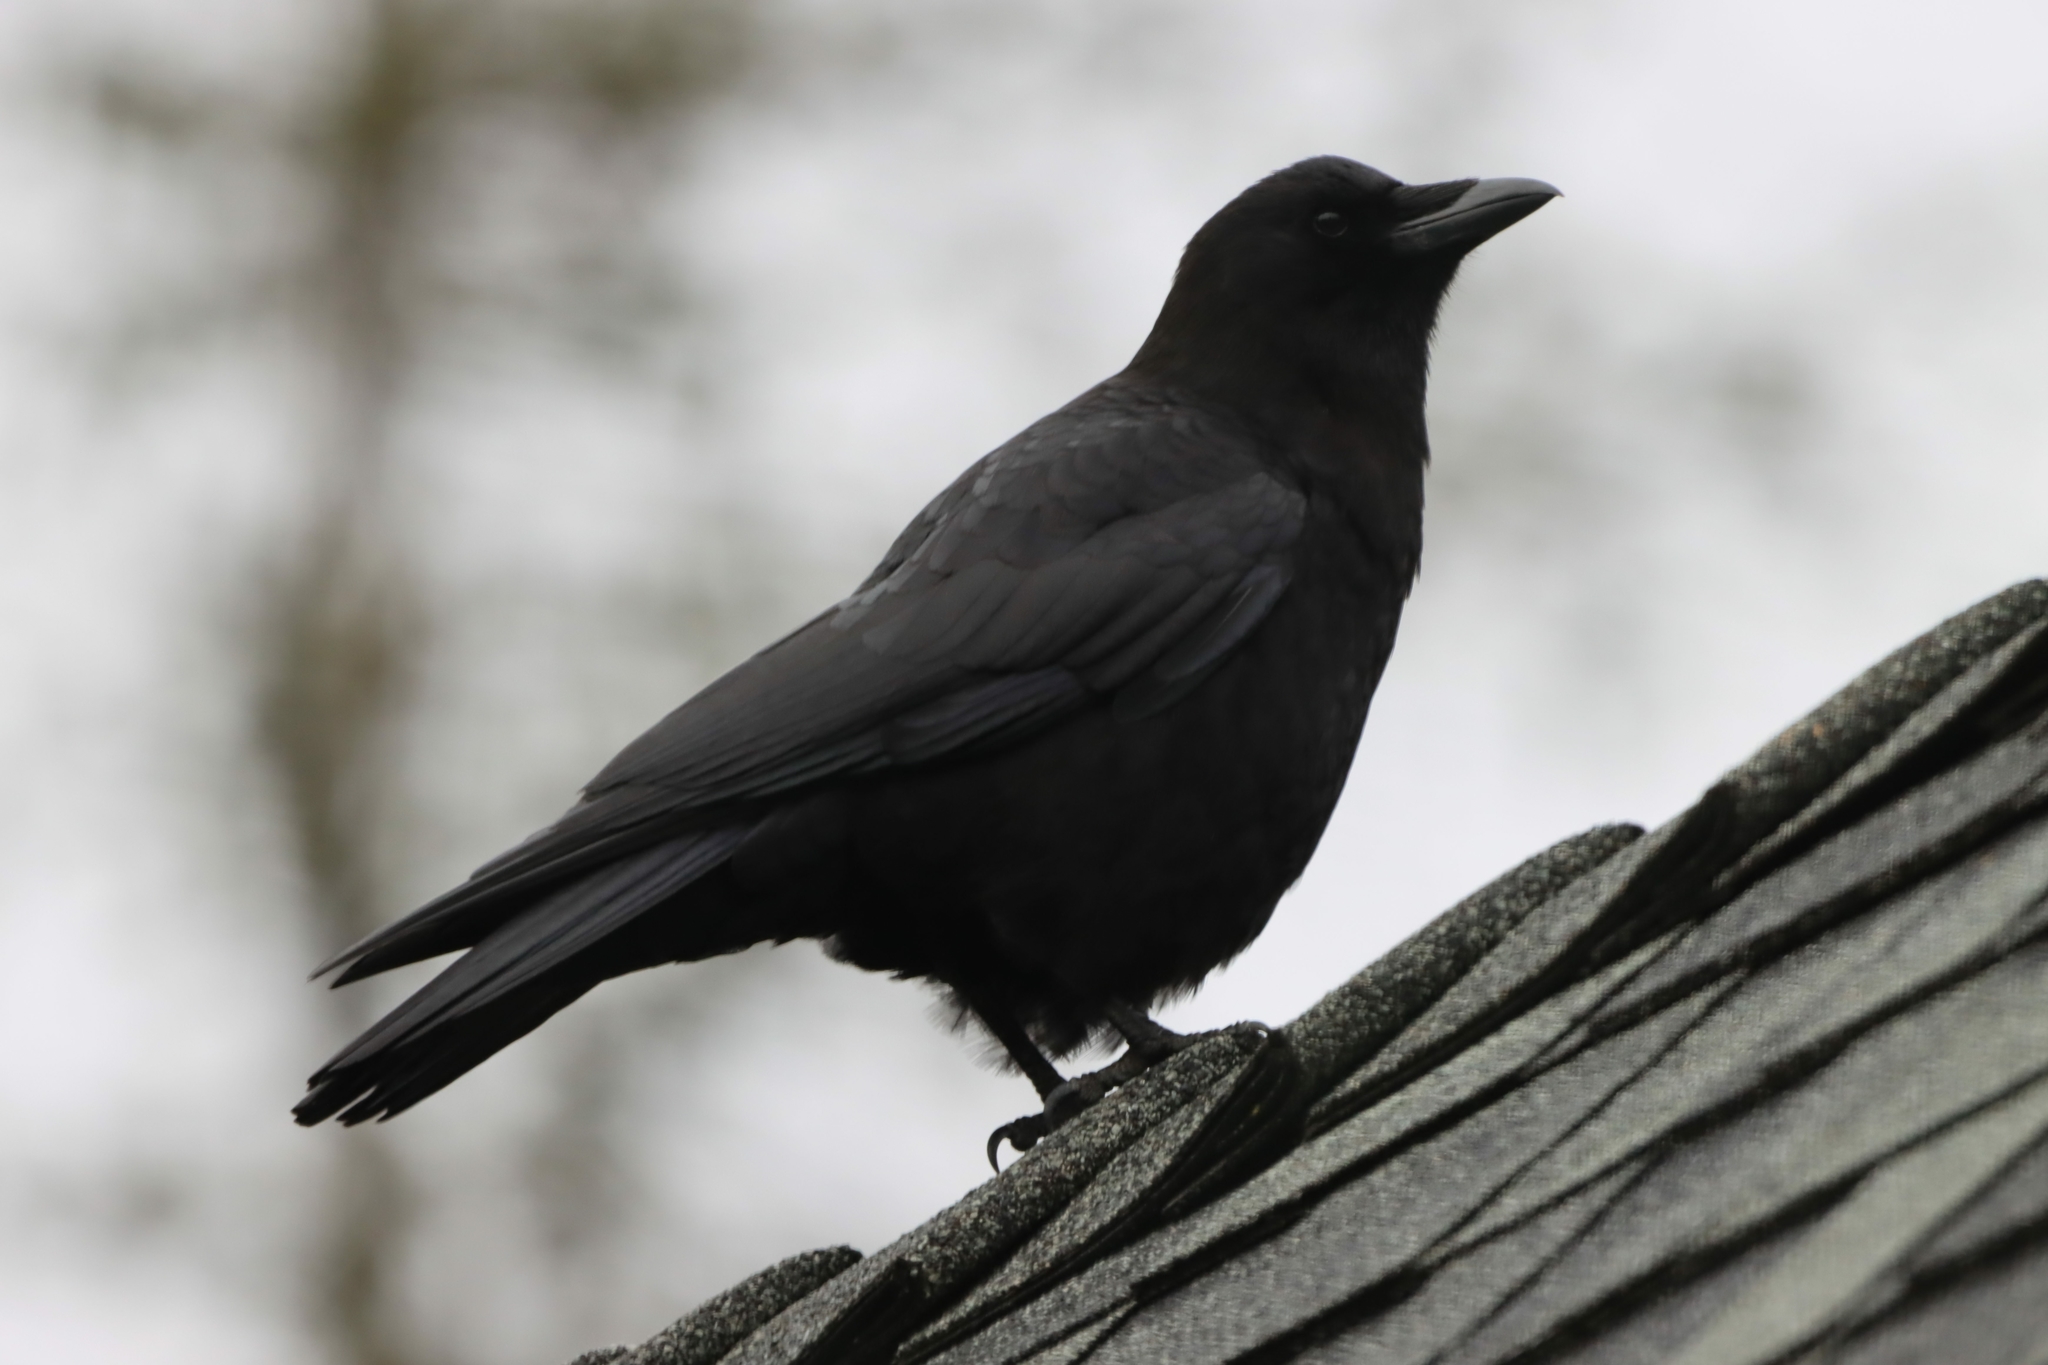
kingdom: Animalia
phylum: Chordata
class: Aves
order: Passeriformes
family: Corvidae
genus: Corvus
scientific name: Corvus brachyrhynchos
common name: American crow
